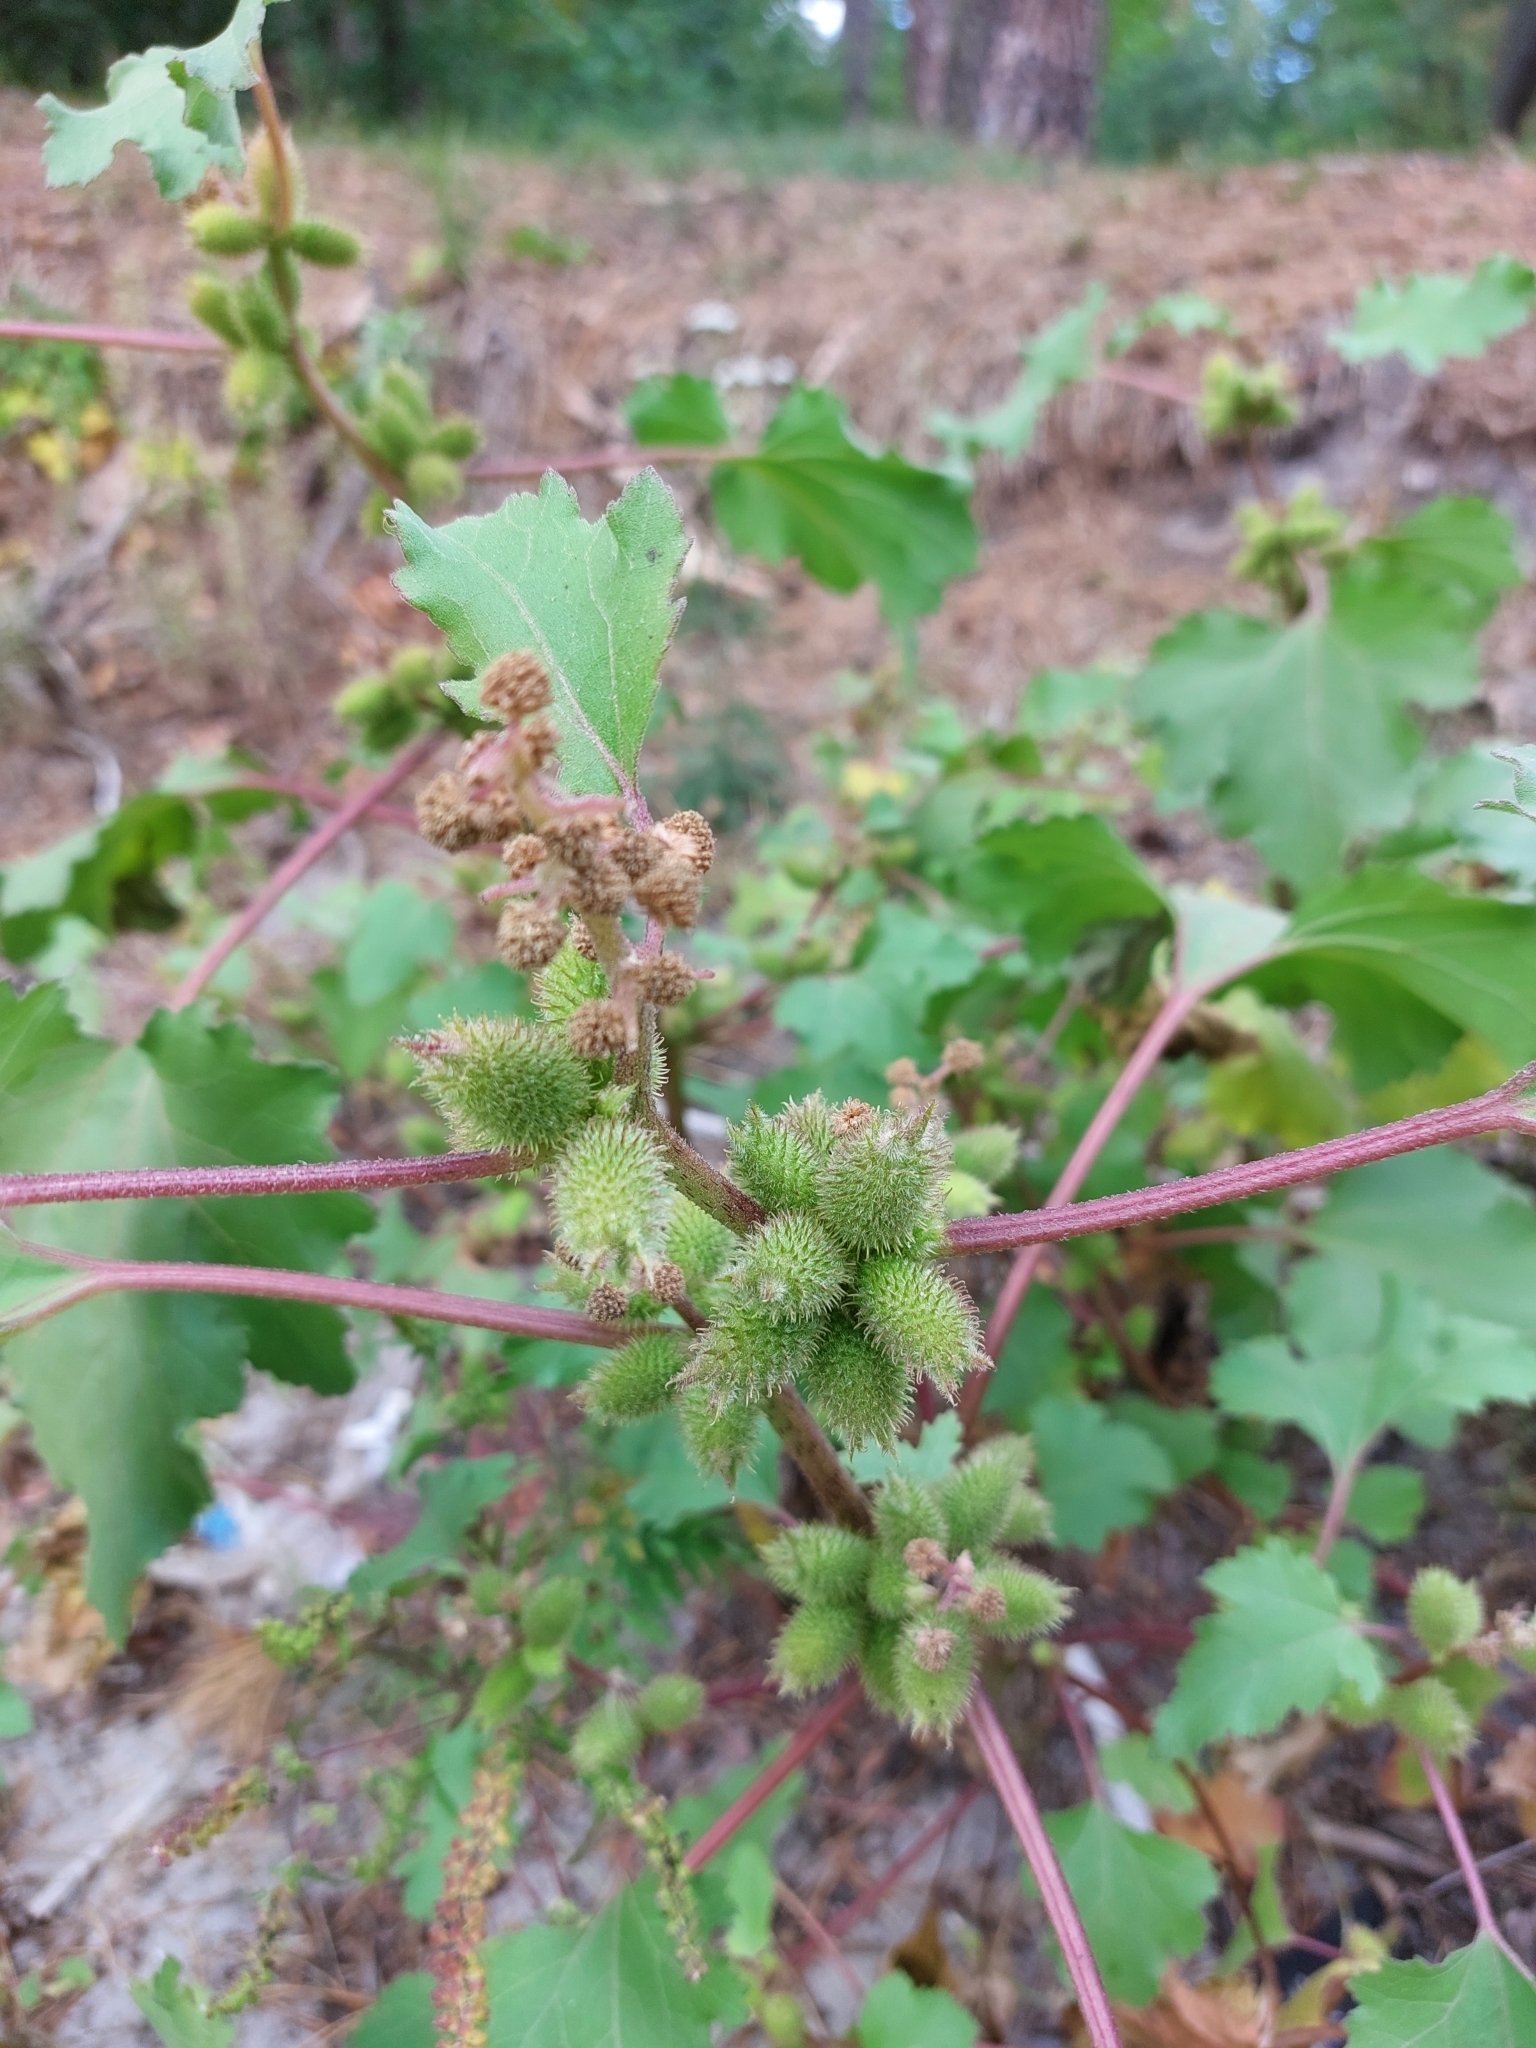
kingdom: Plantae
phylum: Tracheophyta
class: Magnoliopsida
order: Asterales
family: Asteraceae
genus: Xanthium
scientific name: Xanthium orientale
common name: Californian burr
